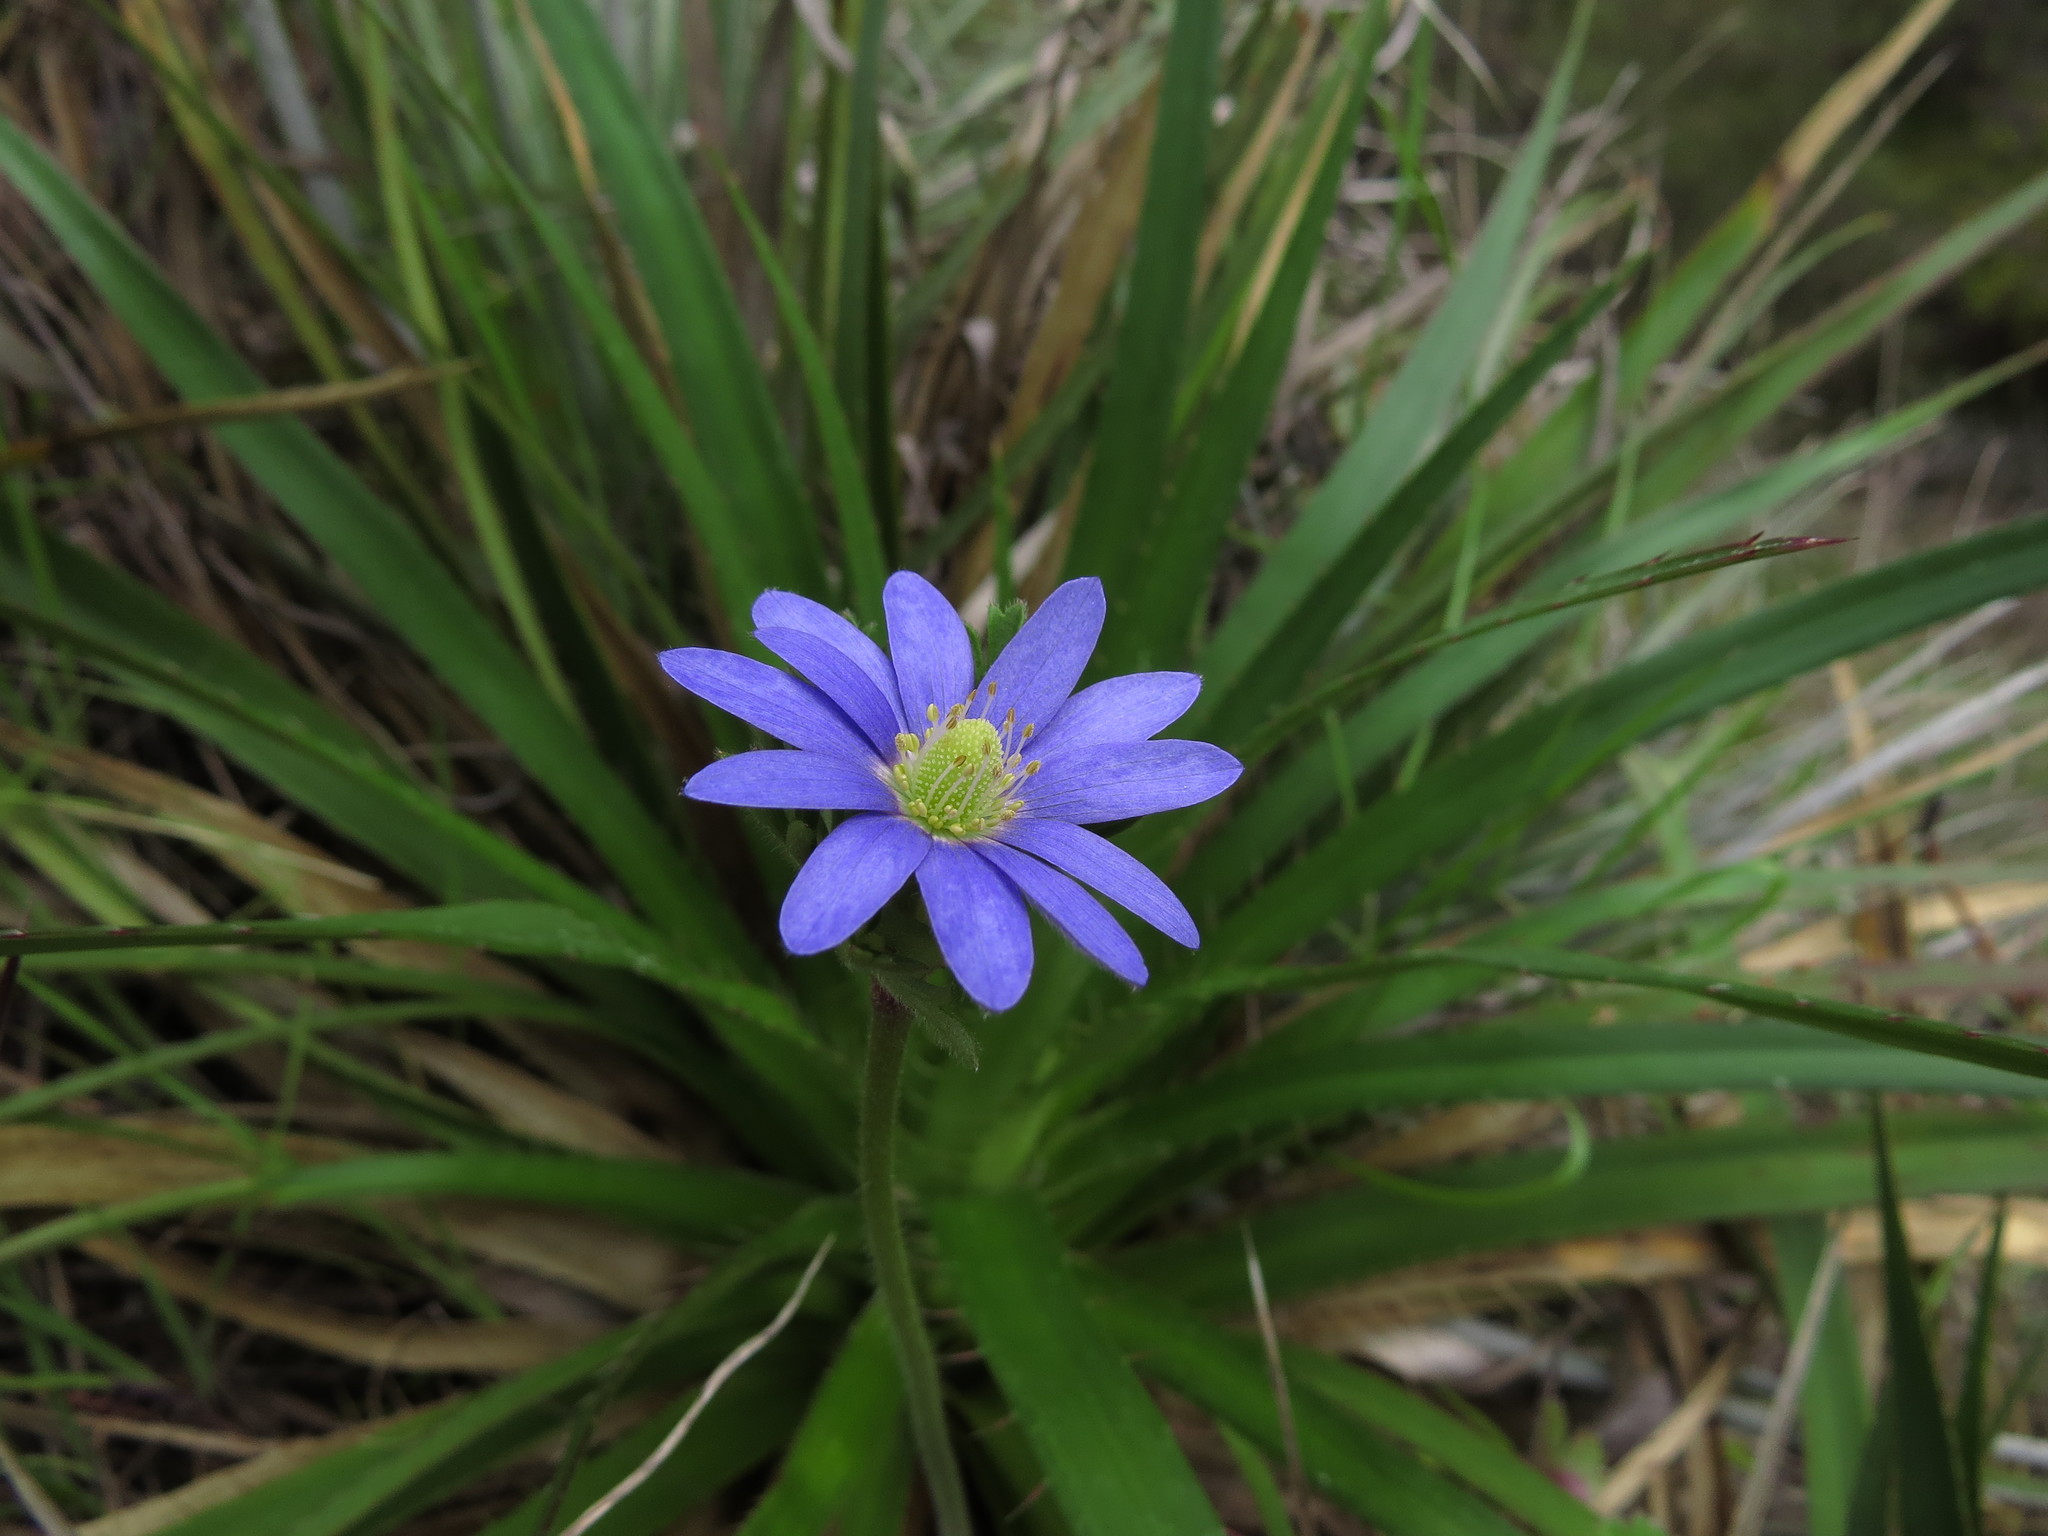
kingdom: Plantae
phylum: Tracheophyta
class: Magnoliopsida
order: Ranunculales
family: Ranunculaceae
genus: Anemone
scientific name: Anemone decapetala
